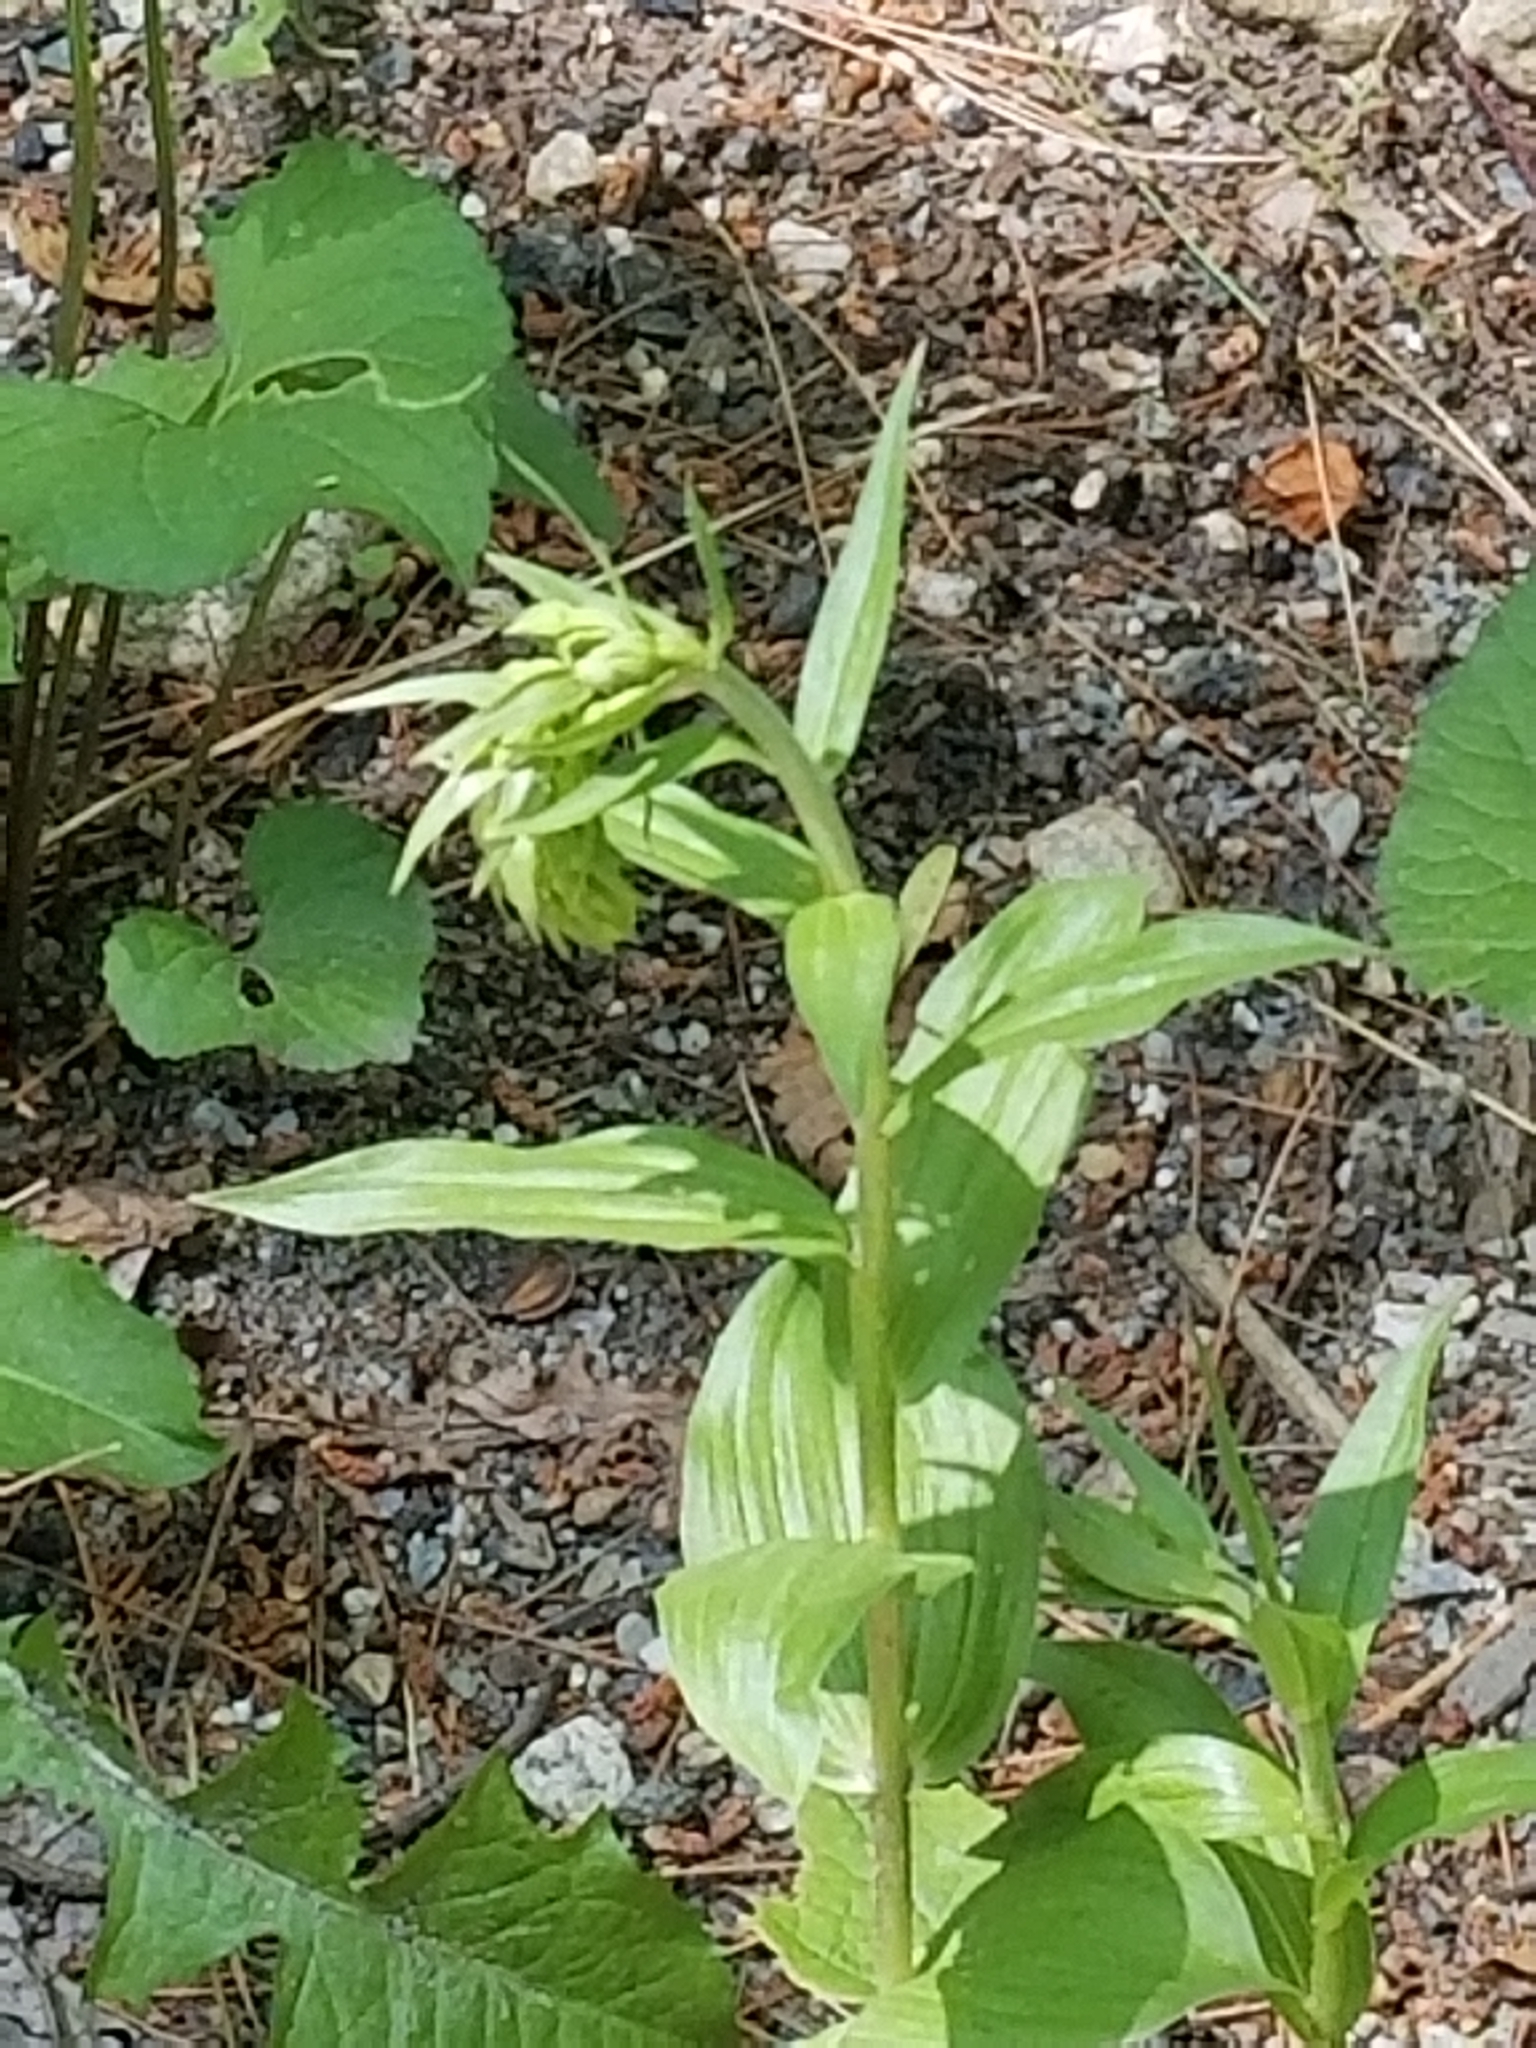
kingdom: Plantae
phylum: Tracheophyta
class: Liliopsida
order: Asparagales
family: Orchidaceae
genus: Epipactis
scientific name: Epipactis helleborine
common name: Broad-leaved helleborine
